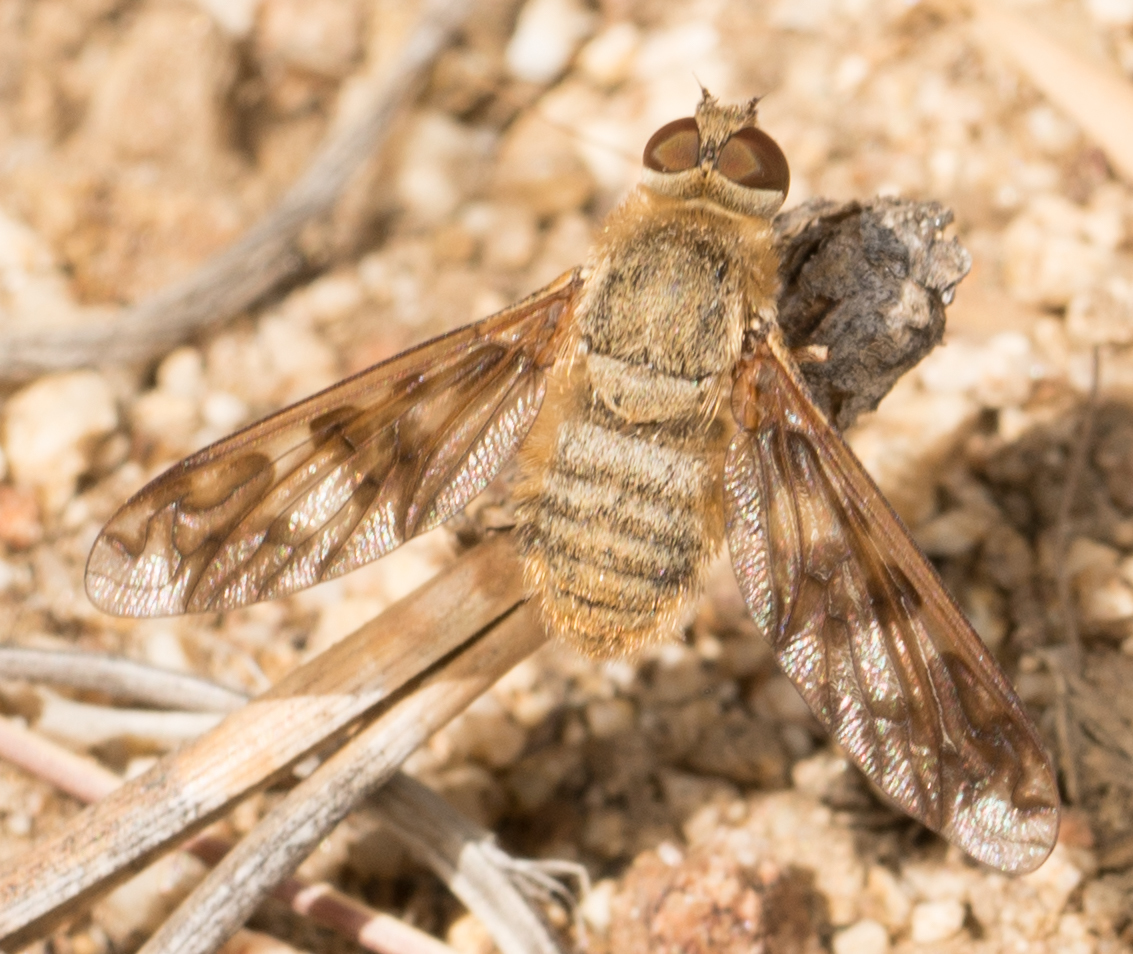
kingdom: Animalia
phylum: Arthropoda
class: Insecta
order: Diptera
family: Bombyliidae
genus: Dipalta
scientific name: Dipalta serpentina
